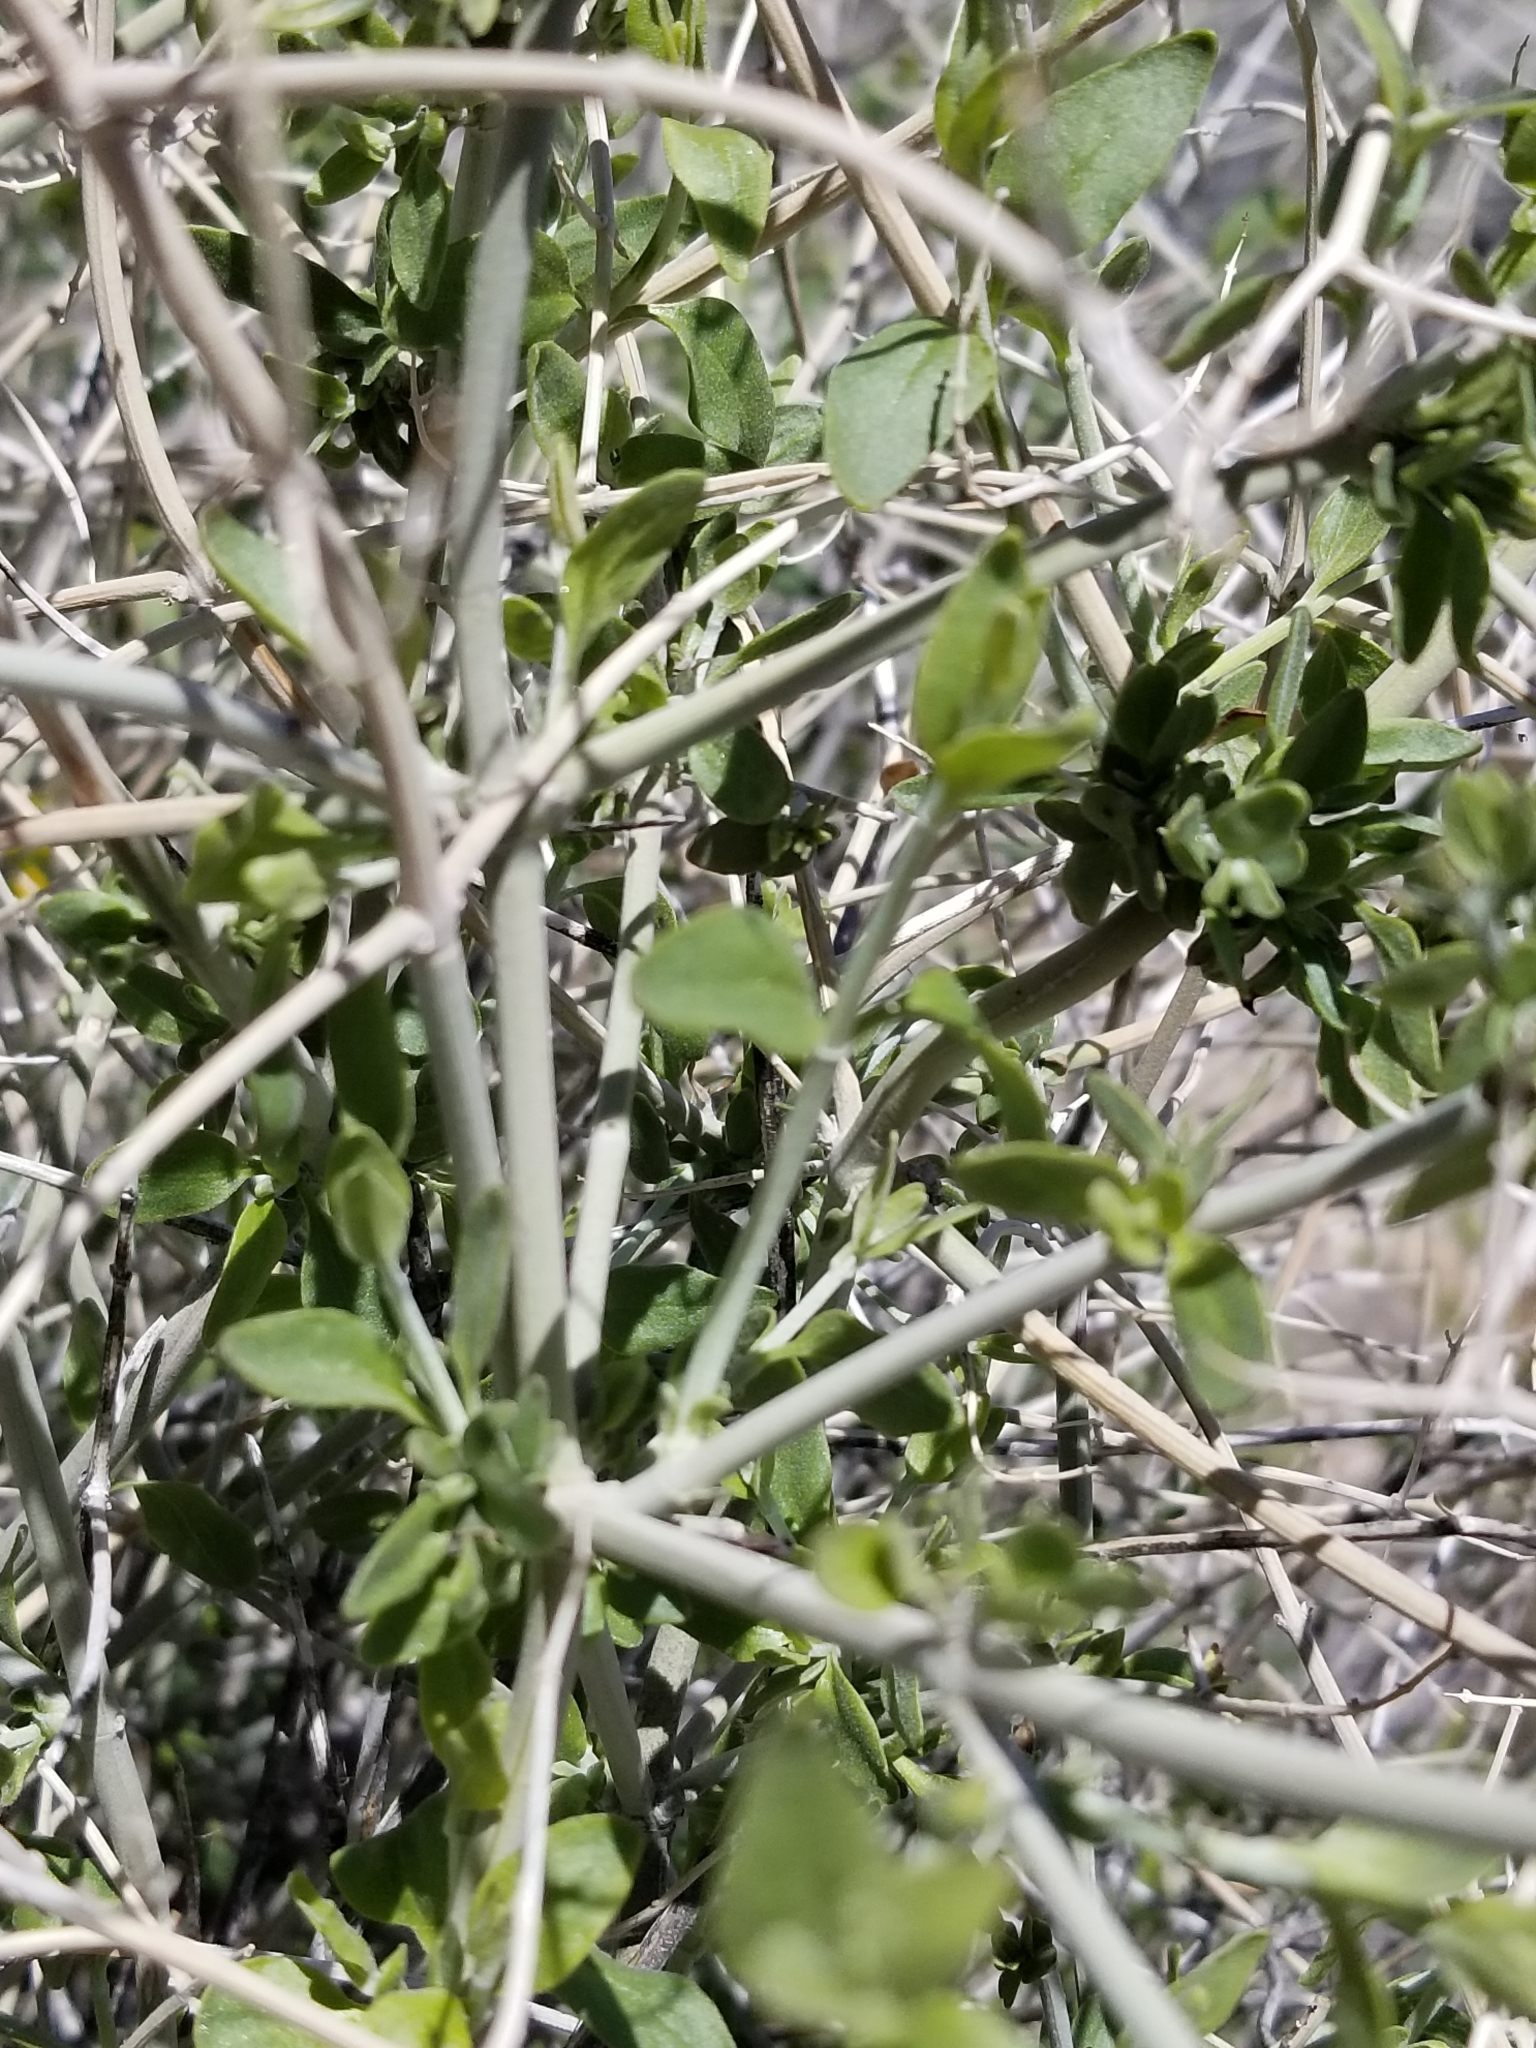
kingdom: Plantae
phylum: Tracheophyta
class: Magnoliopsida
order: Lamiales
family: Lamiaceae
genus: Scutellaria
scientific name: Scutellaria mexicana
